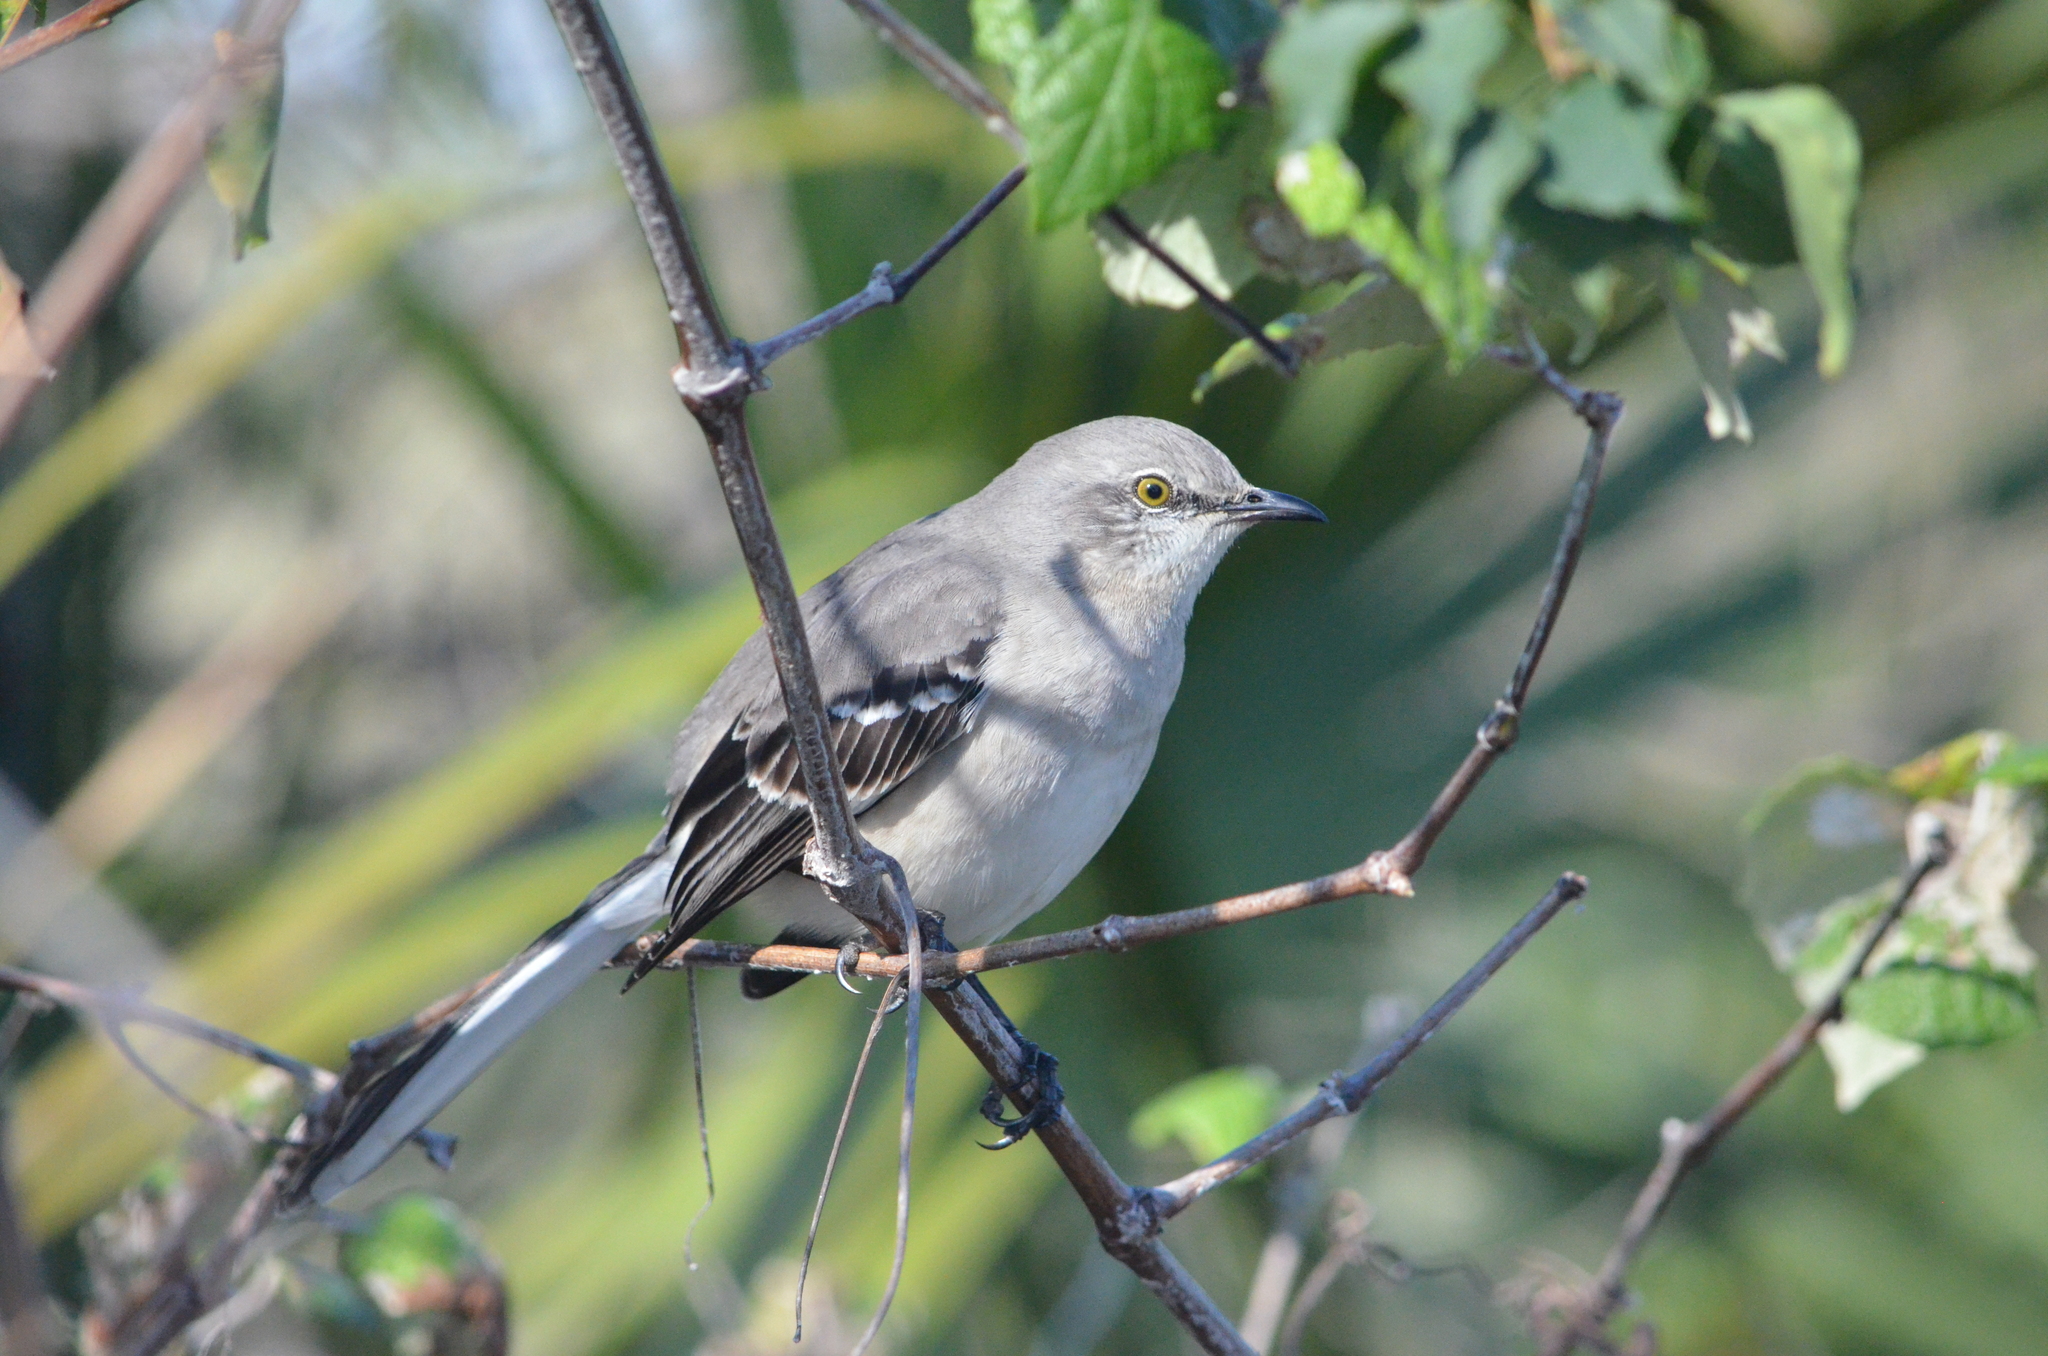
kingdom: Animalia
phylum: Chordata
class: Aves
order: Passeriformes
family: Mimidae
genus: Mimus
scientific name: Mimus polyglottos
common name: Northern mockingbird
